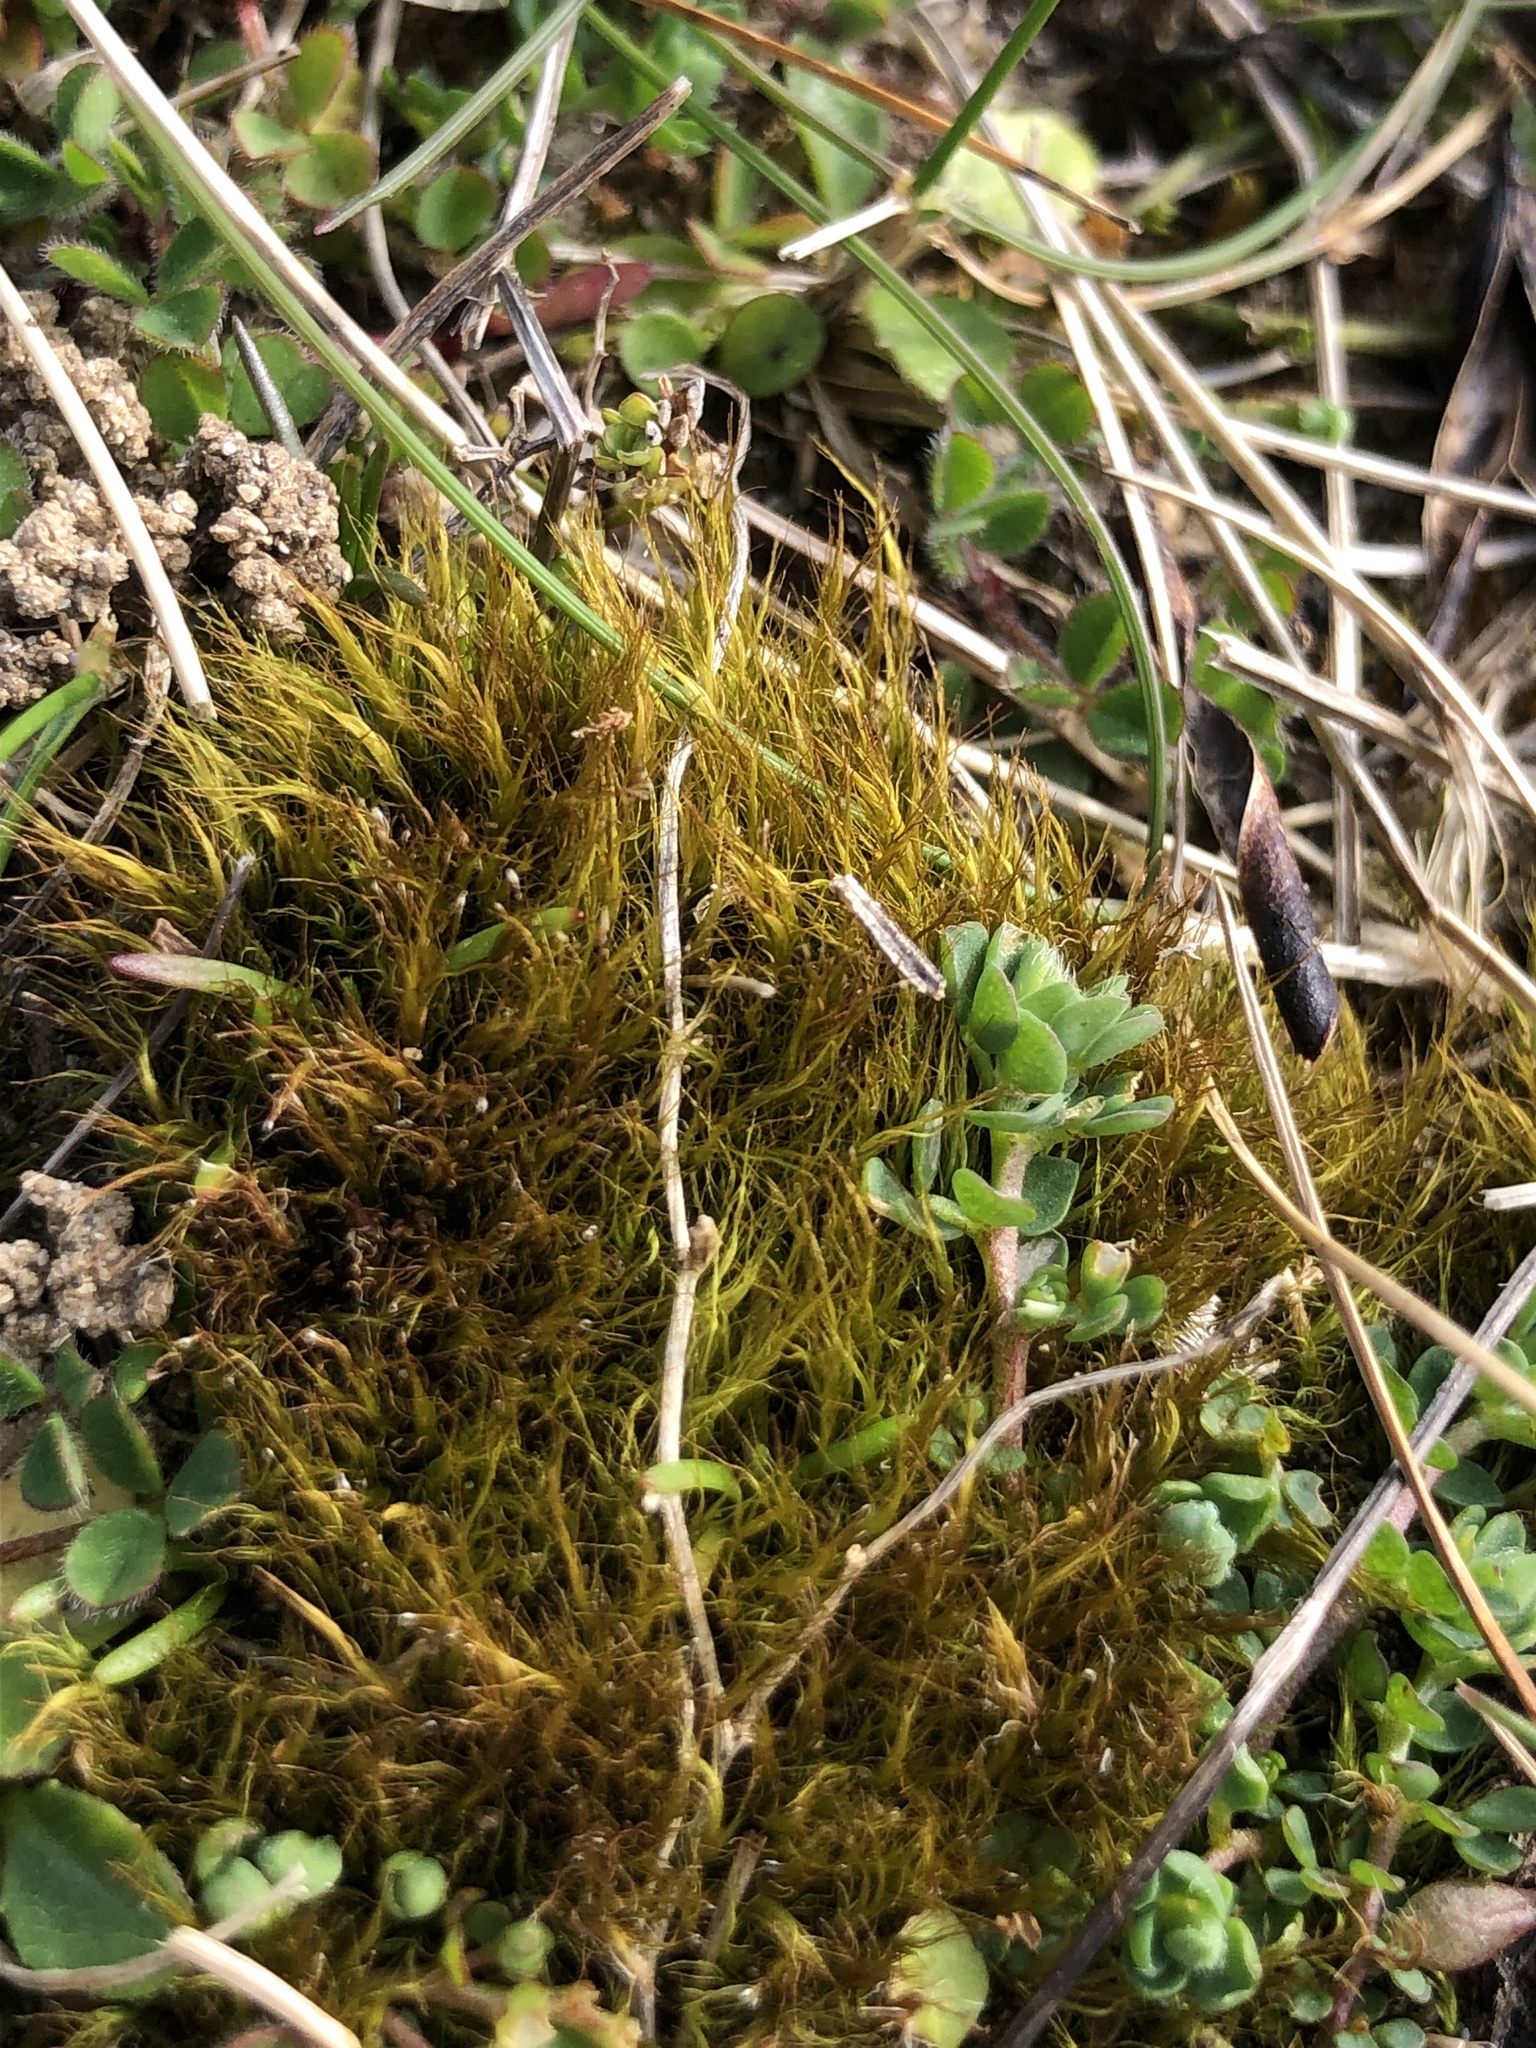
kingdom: Plantae
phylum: Bryophyta
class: Bryopsida
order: Scouleriales
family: Flexitrichaceae
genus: Flexitrichum
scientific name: Flexitrichum gracile
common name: Slender ditrichum
